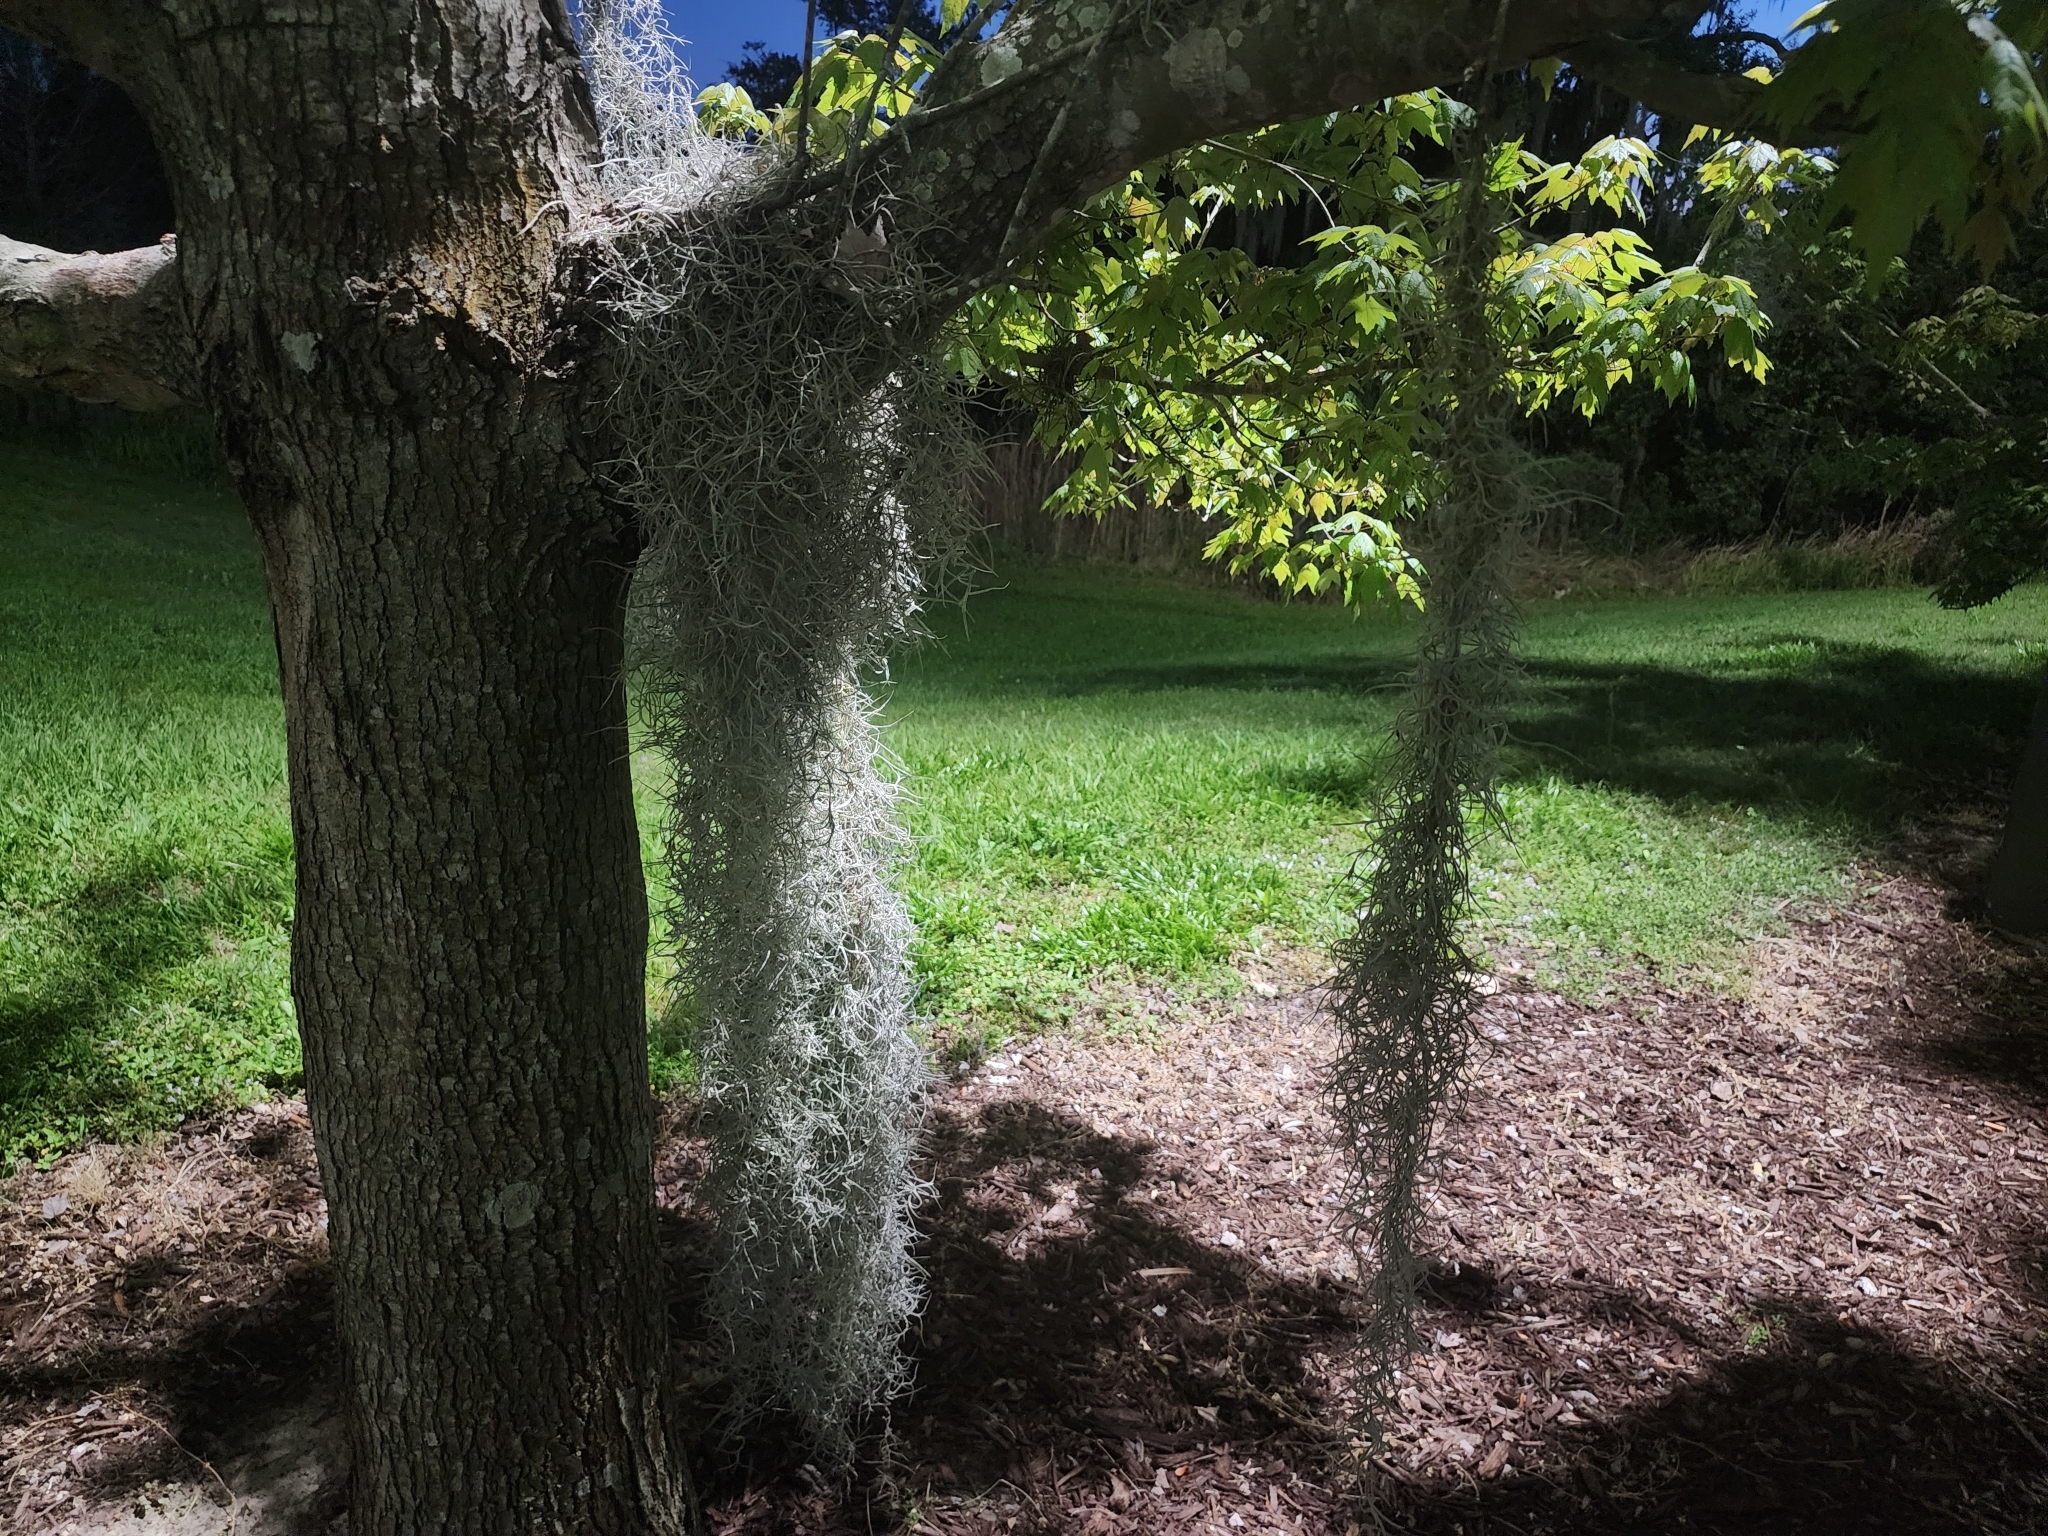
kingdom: Plantae
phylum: Tracheophyta
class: Liliopsida
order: Poales
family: Bromeliaceae
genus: Tillandsia
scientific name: Tillandsia usneoides
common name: Spanish moss
